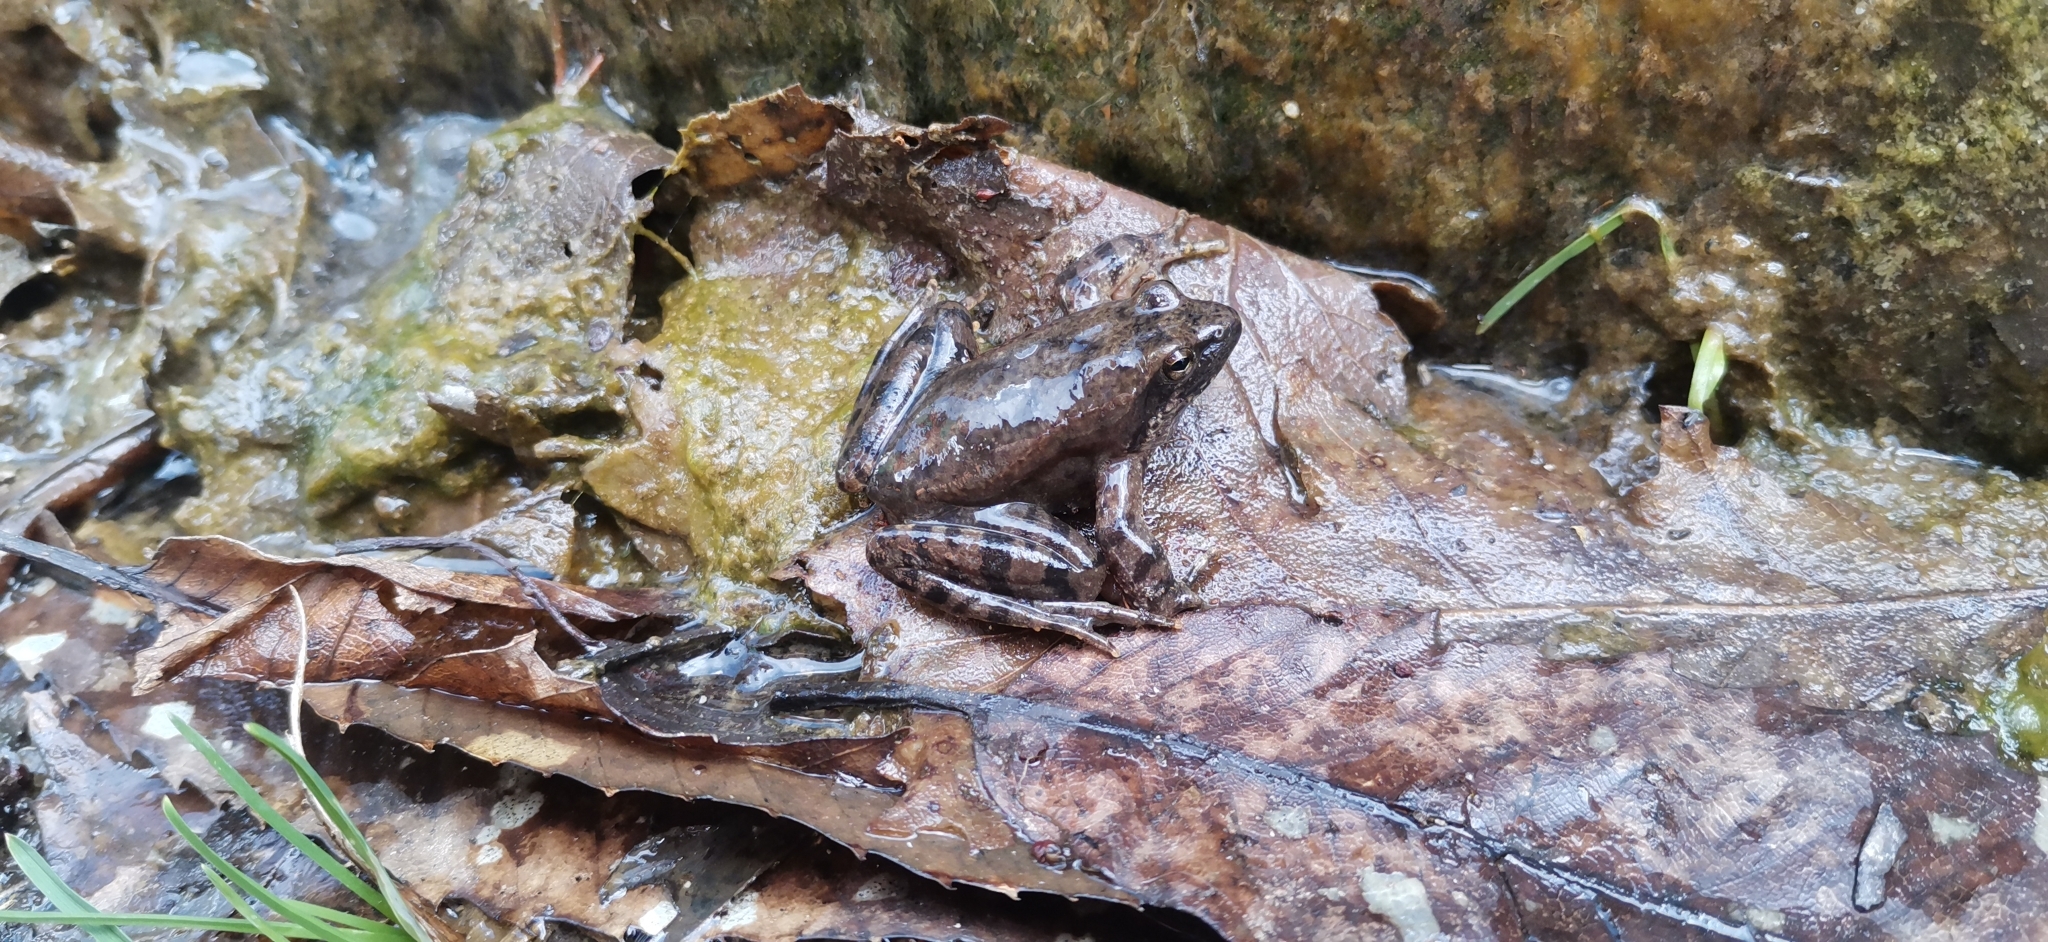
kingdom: Animalia
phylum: Chordata
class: Amphibia
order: Anura
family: Ranidae
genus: Rana
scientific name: Rana italica
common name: Italian stream frog
